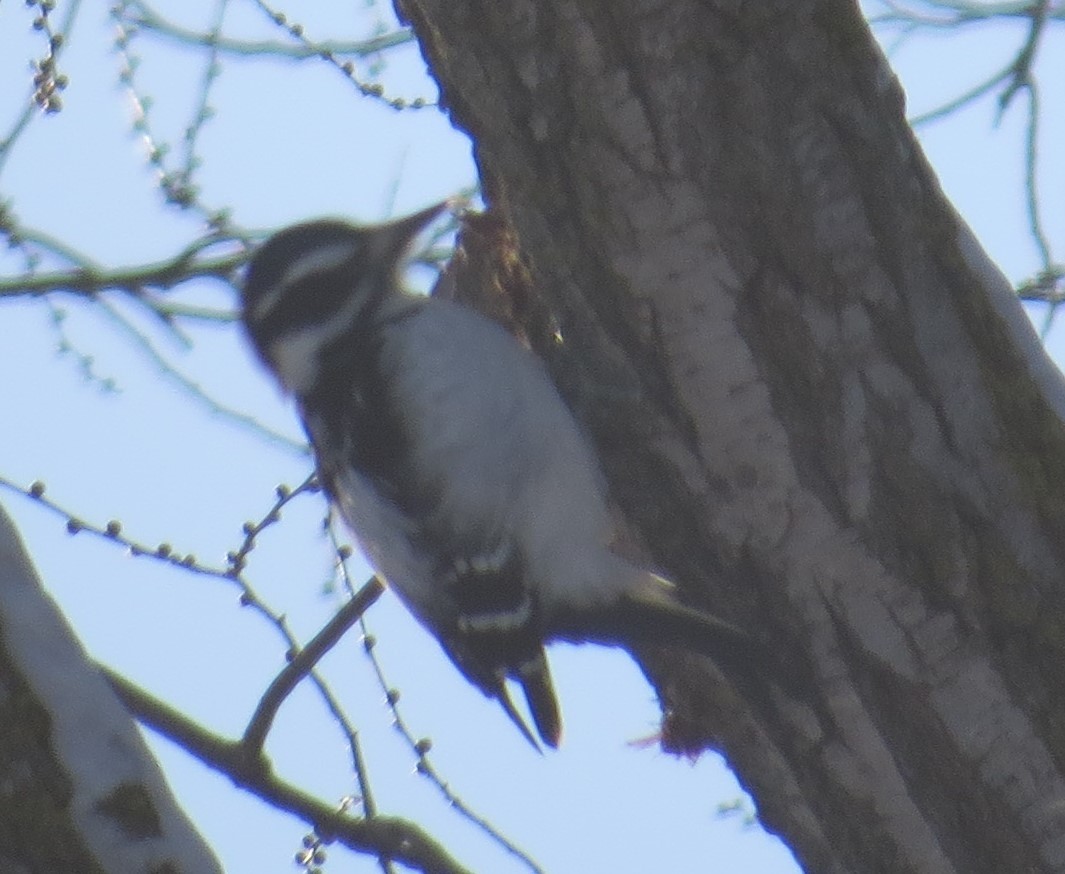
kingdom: Animalia
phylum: Chordata
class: Aves
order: Piciformes
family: Picidae
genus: Leuconotopicus
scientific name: Leuconotopicus villosus
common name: Hairy woodpecker
